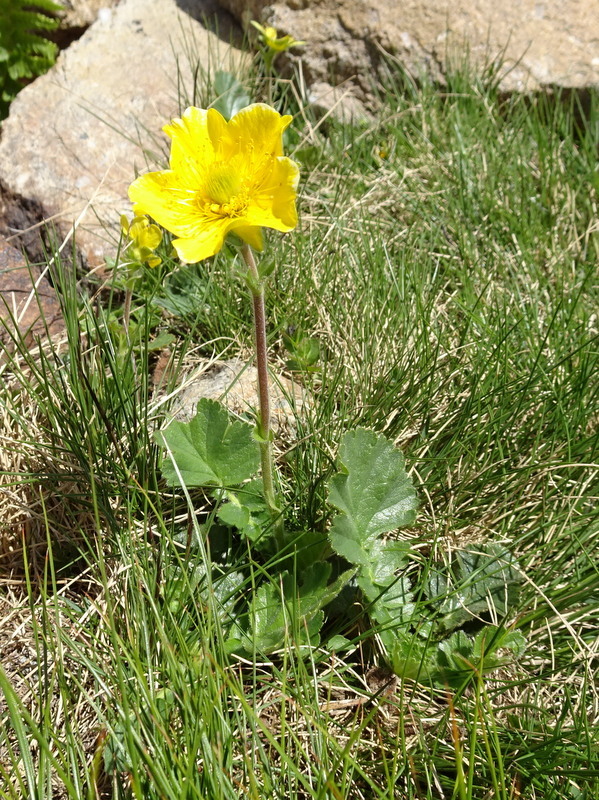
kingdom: Plantae
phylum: Tracheophyta
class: Magnoliopsida
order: Rosales
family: Rosaceae
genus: Geum
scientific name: Geum montanum
